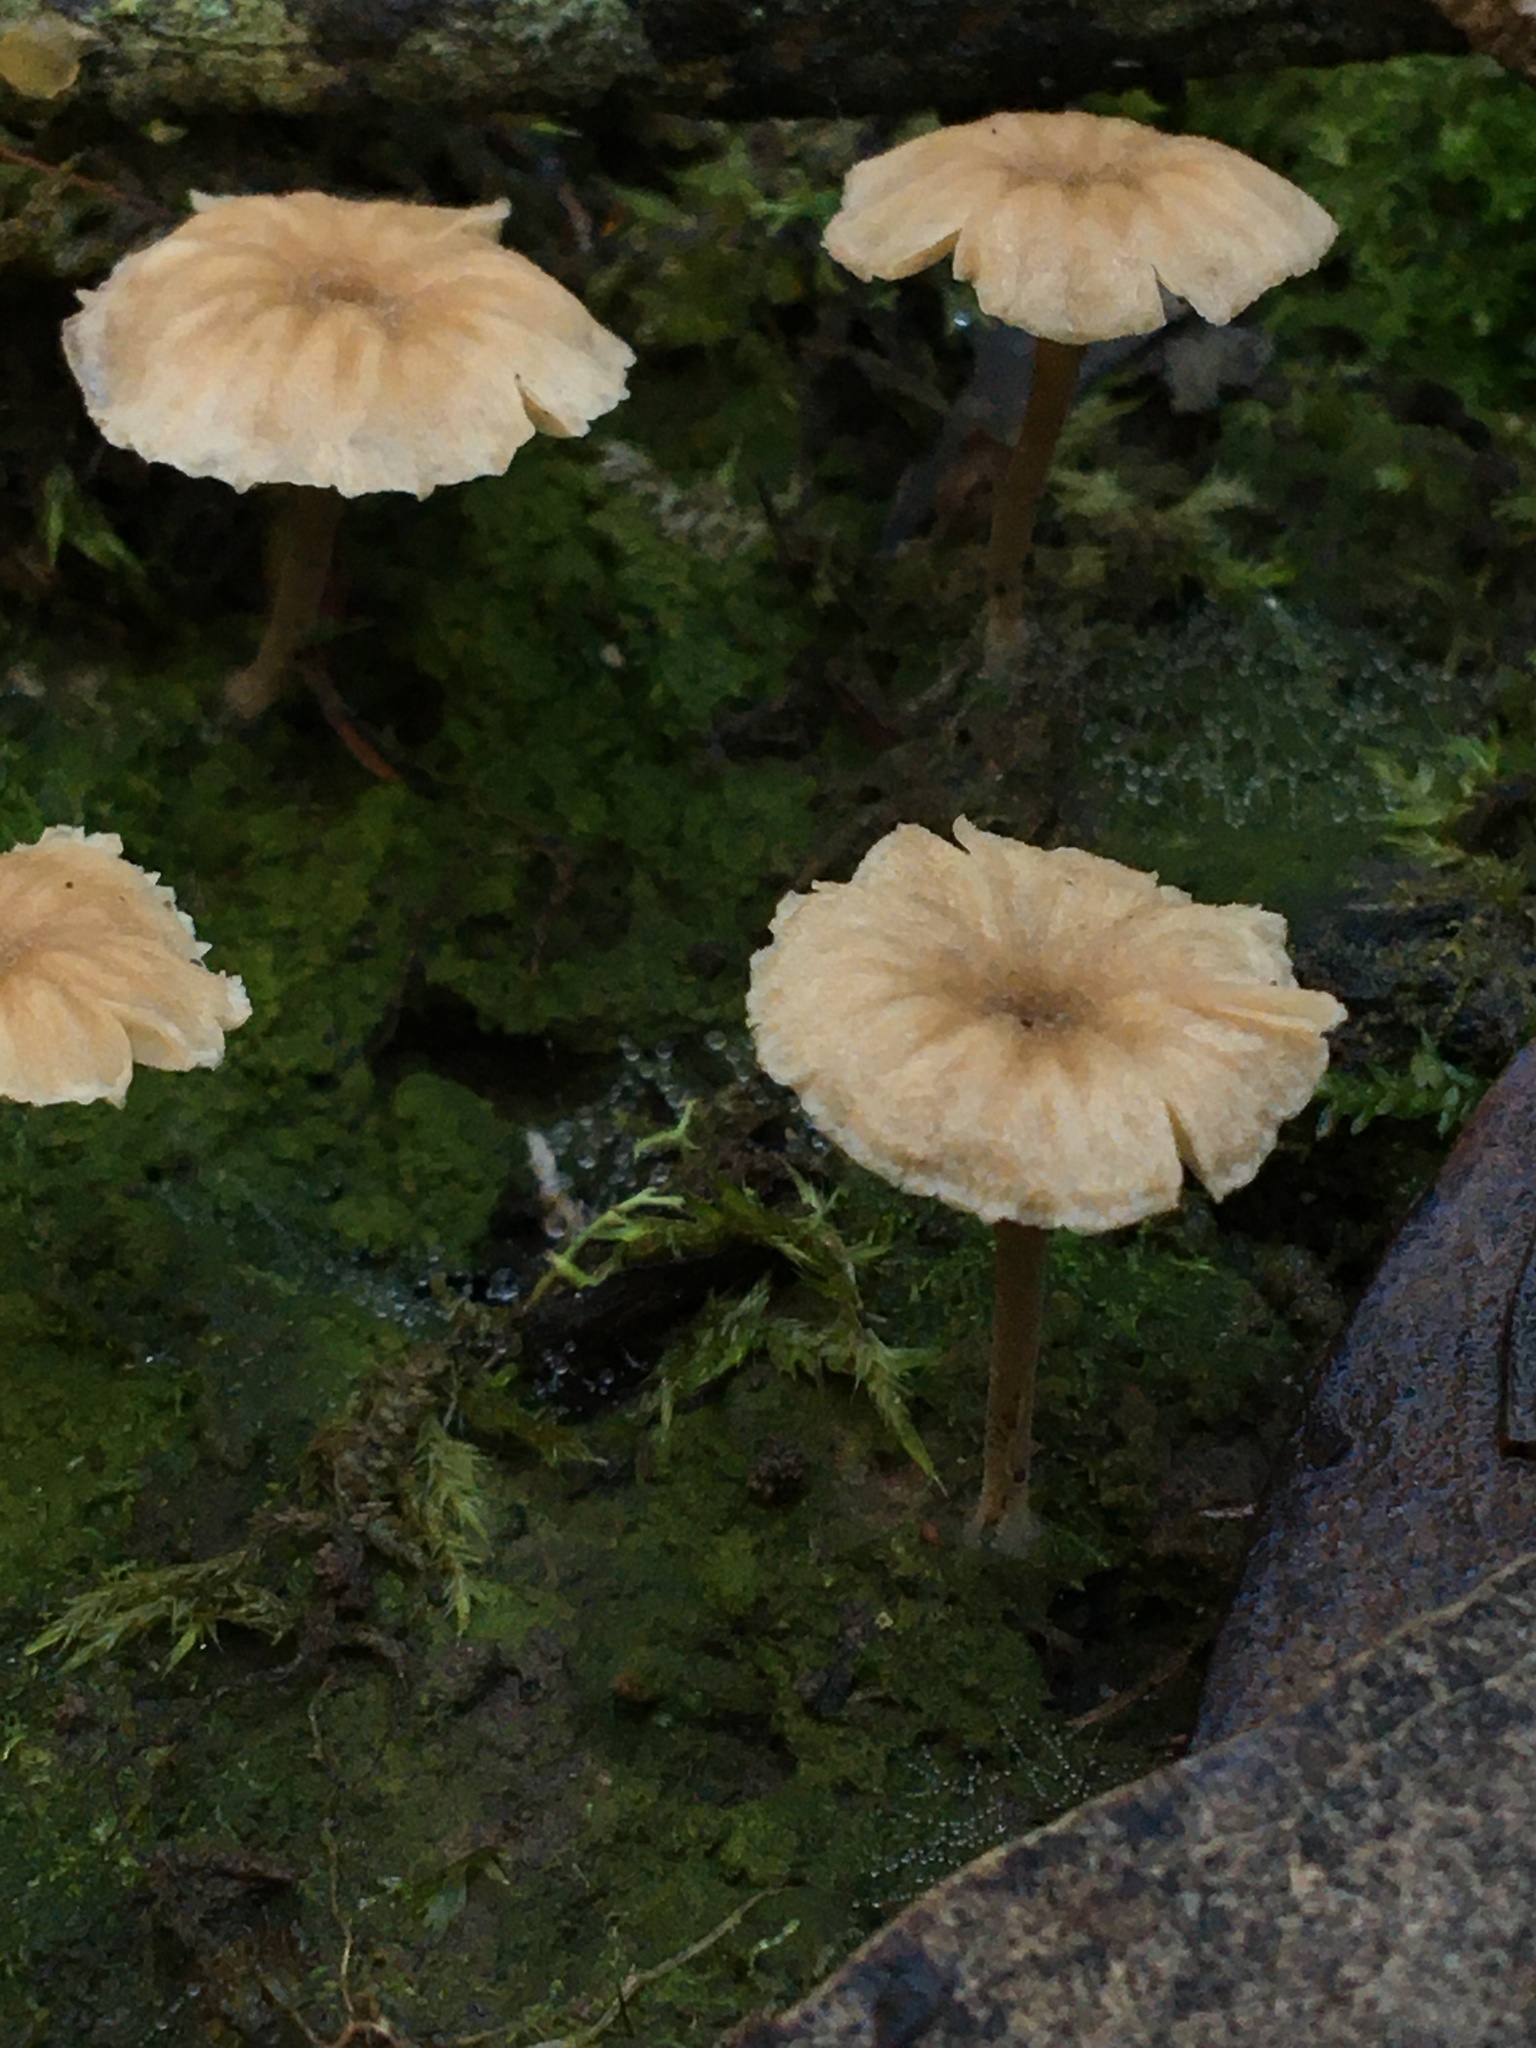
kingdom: Fungi
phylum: Basidiomycota
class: Agaricomycetes
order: Agaricales
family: Hygrophoraceae
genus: Lichenomphalia
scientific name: Lichenomphalia
